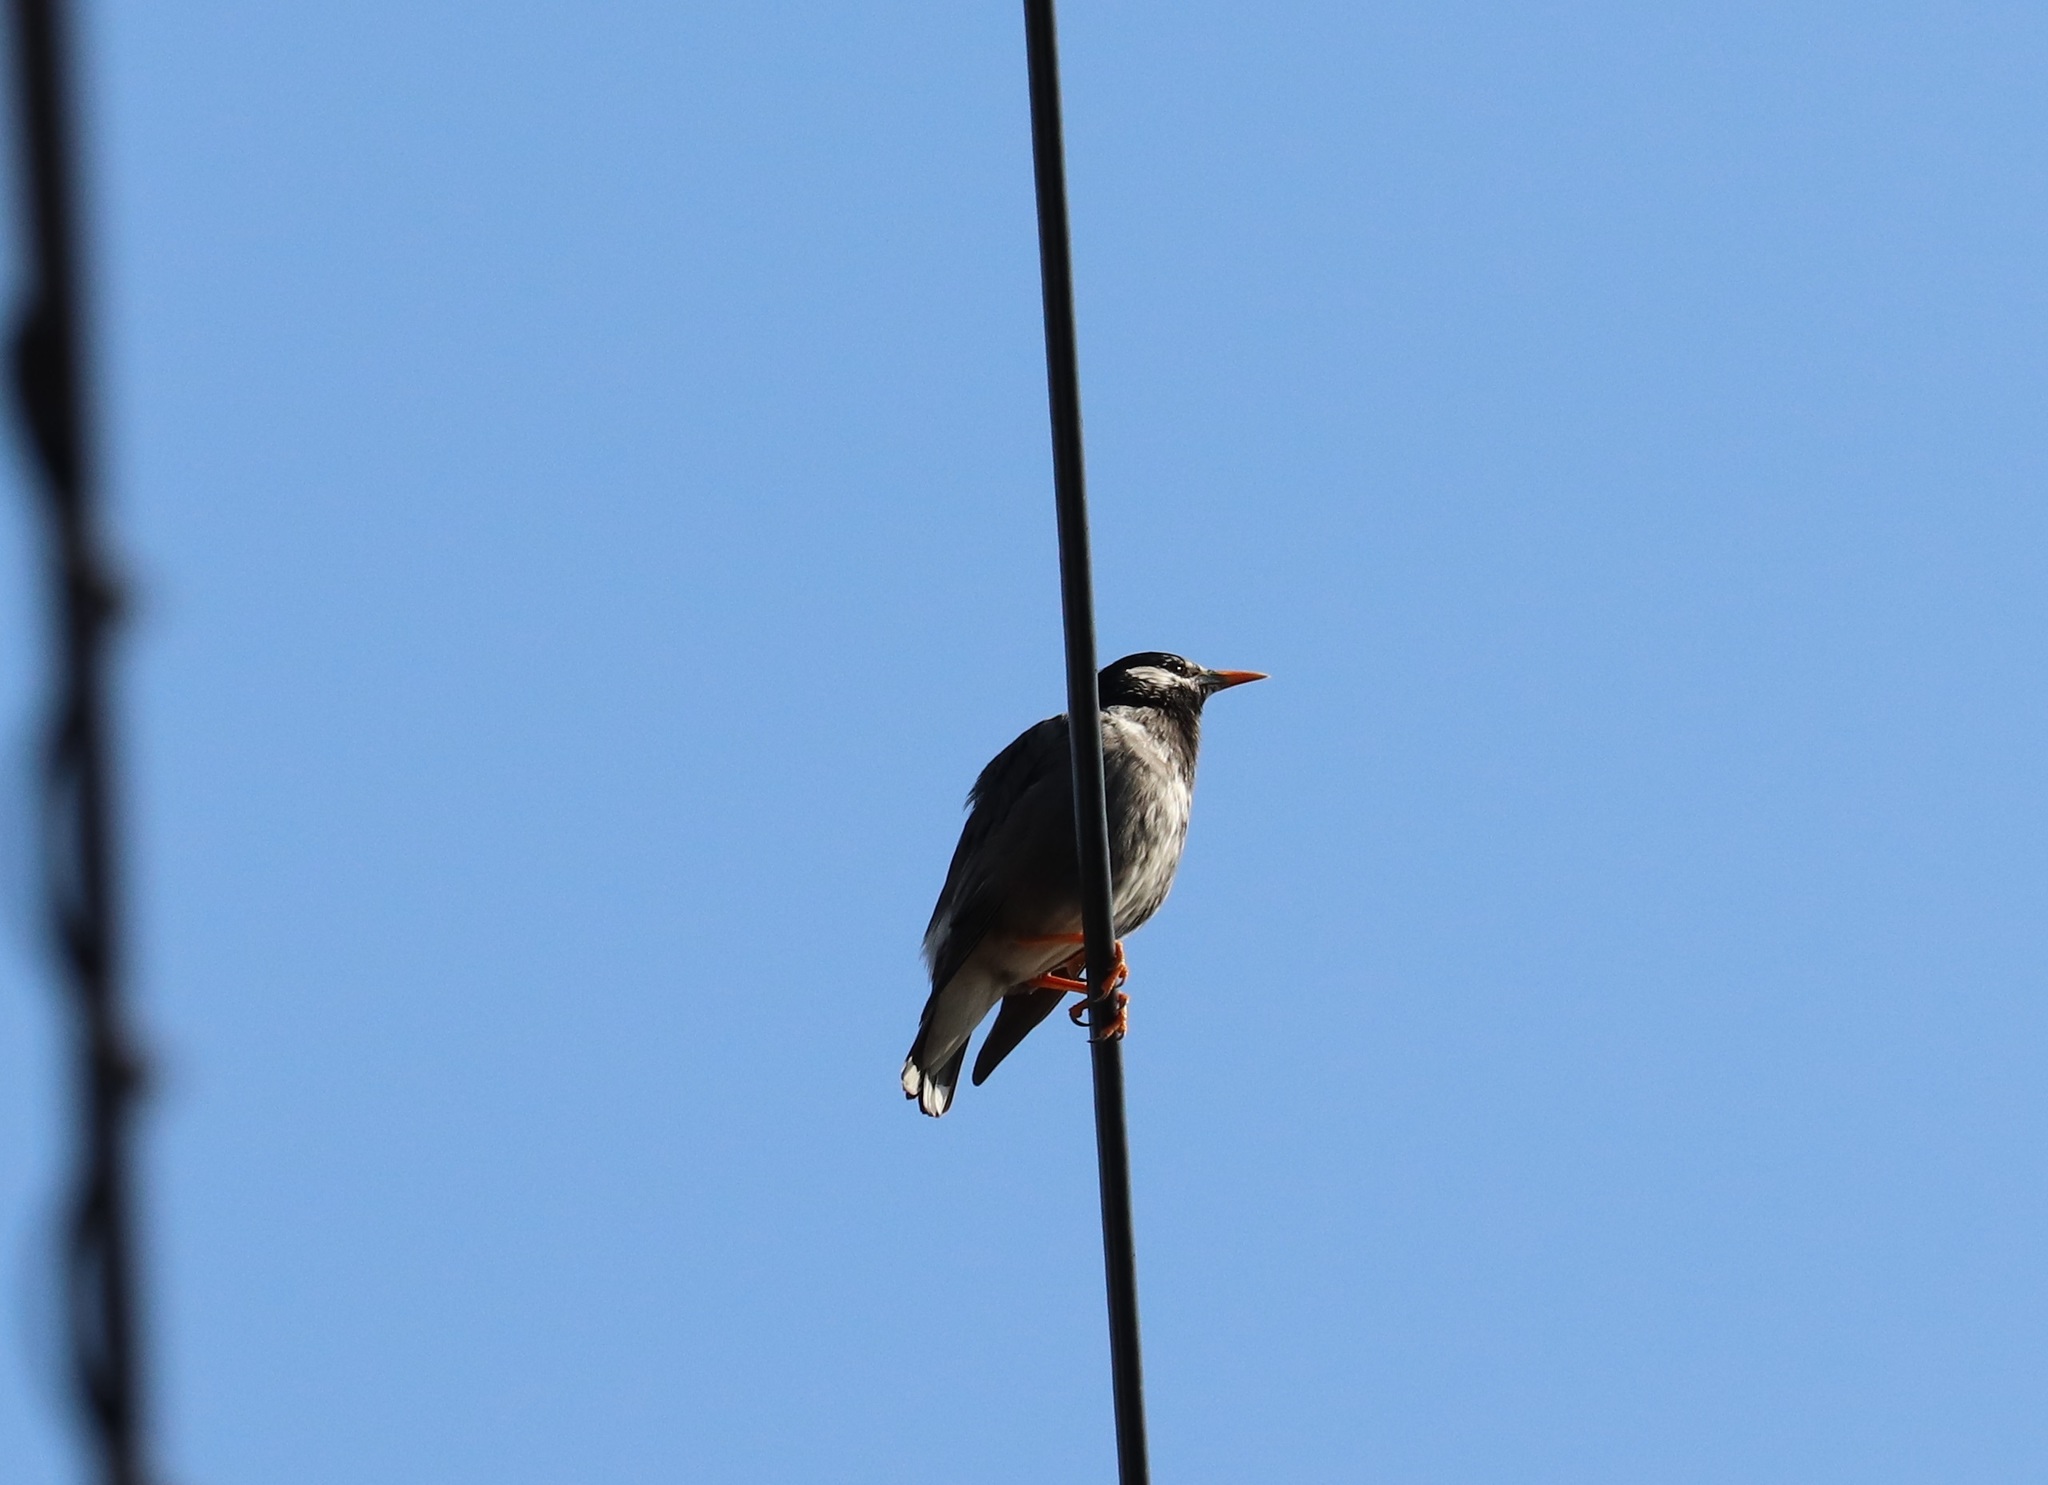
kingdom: Animalia
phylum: Chordata
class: Aves
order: Passeriformes
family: Sturnidae
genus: Spodiopsar
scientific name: Spodiopsar cineraceus
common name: White-cheeked starling
